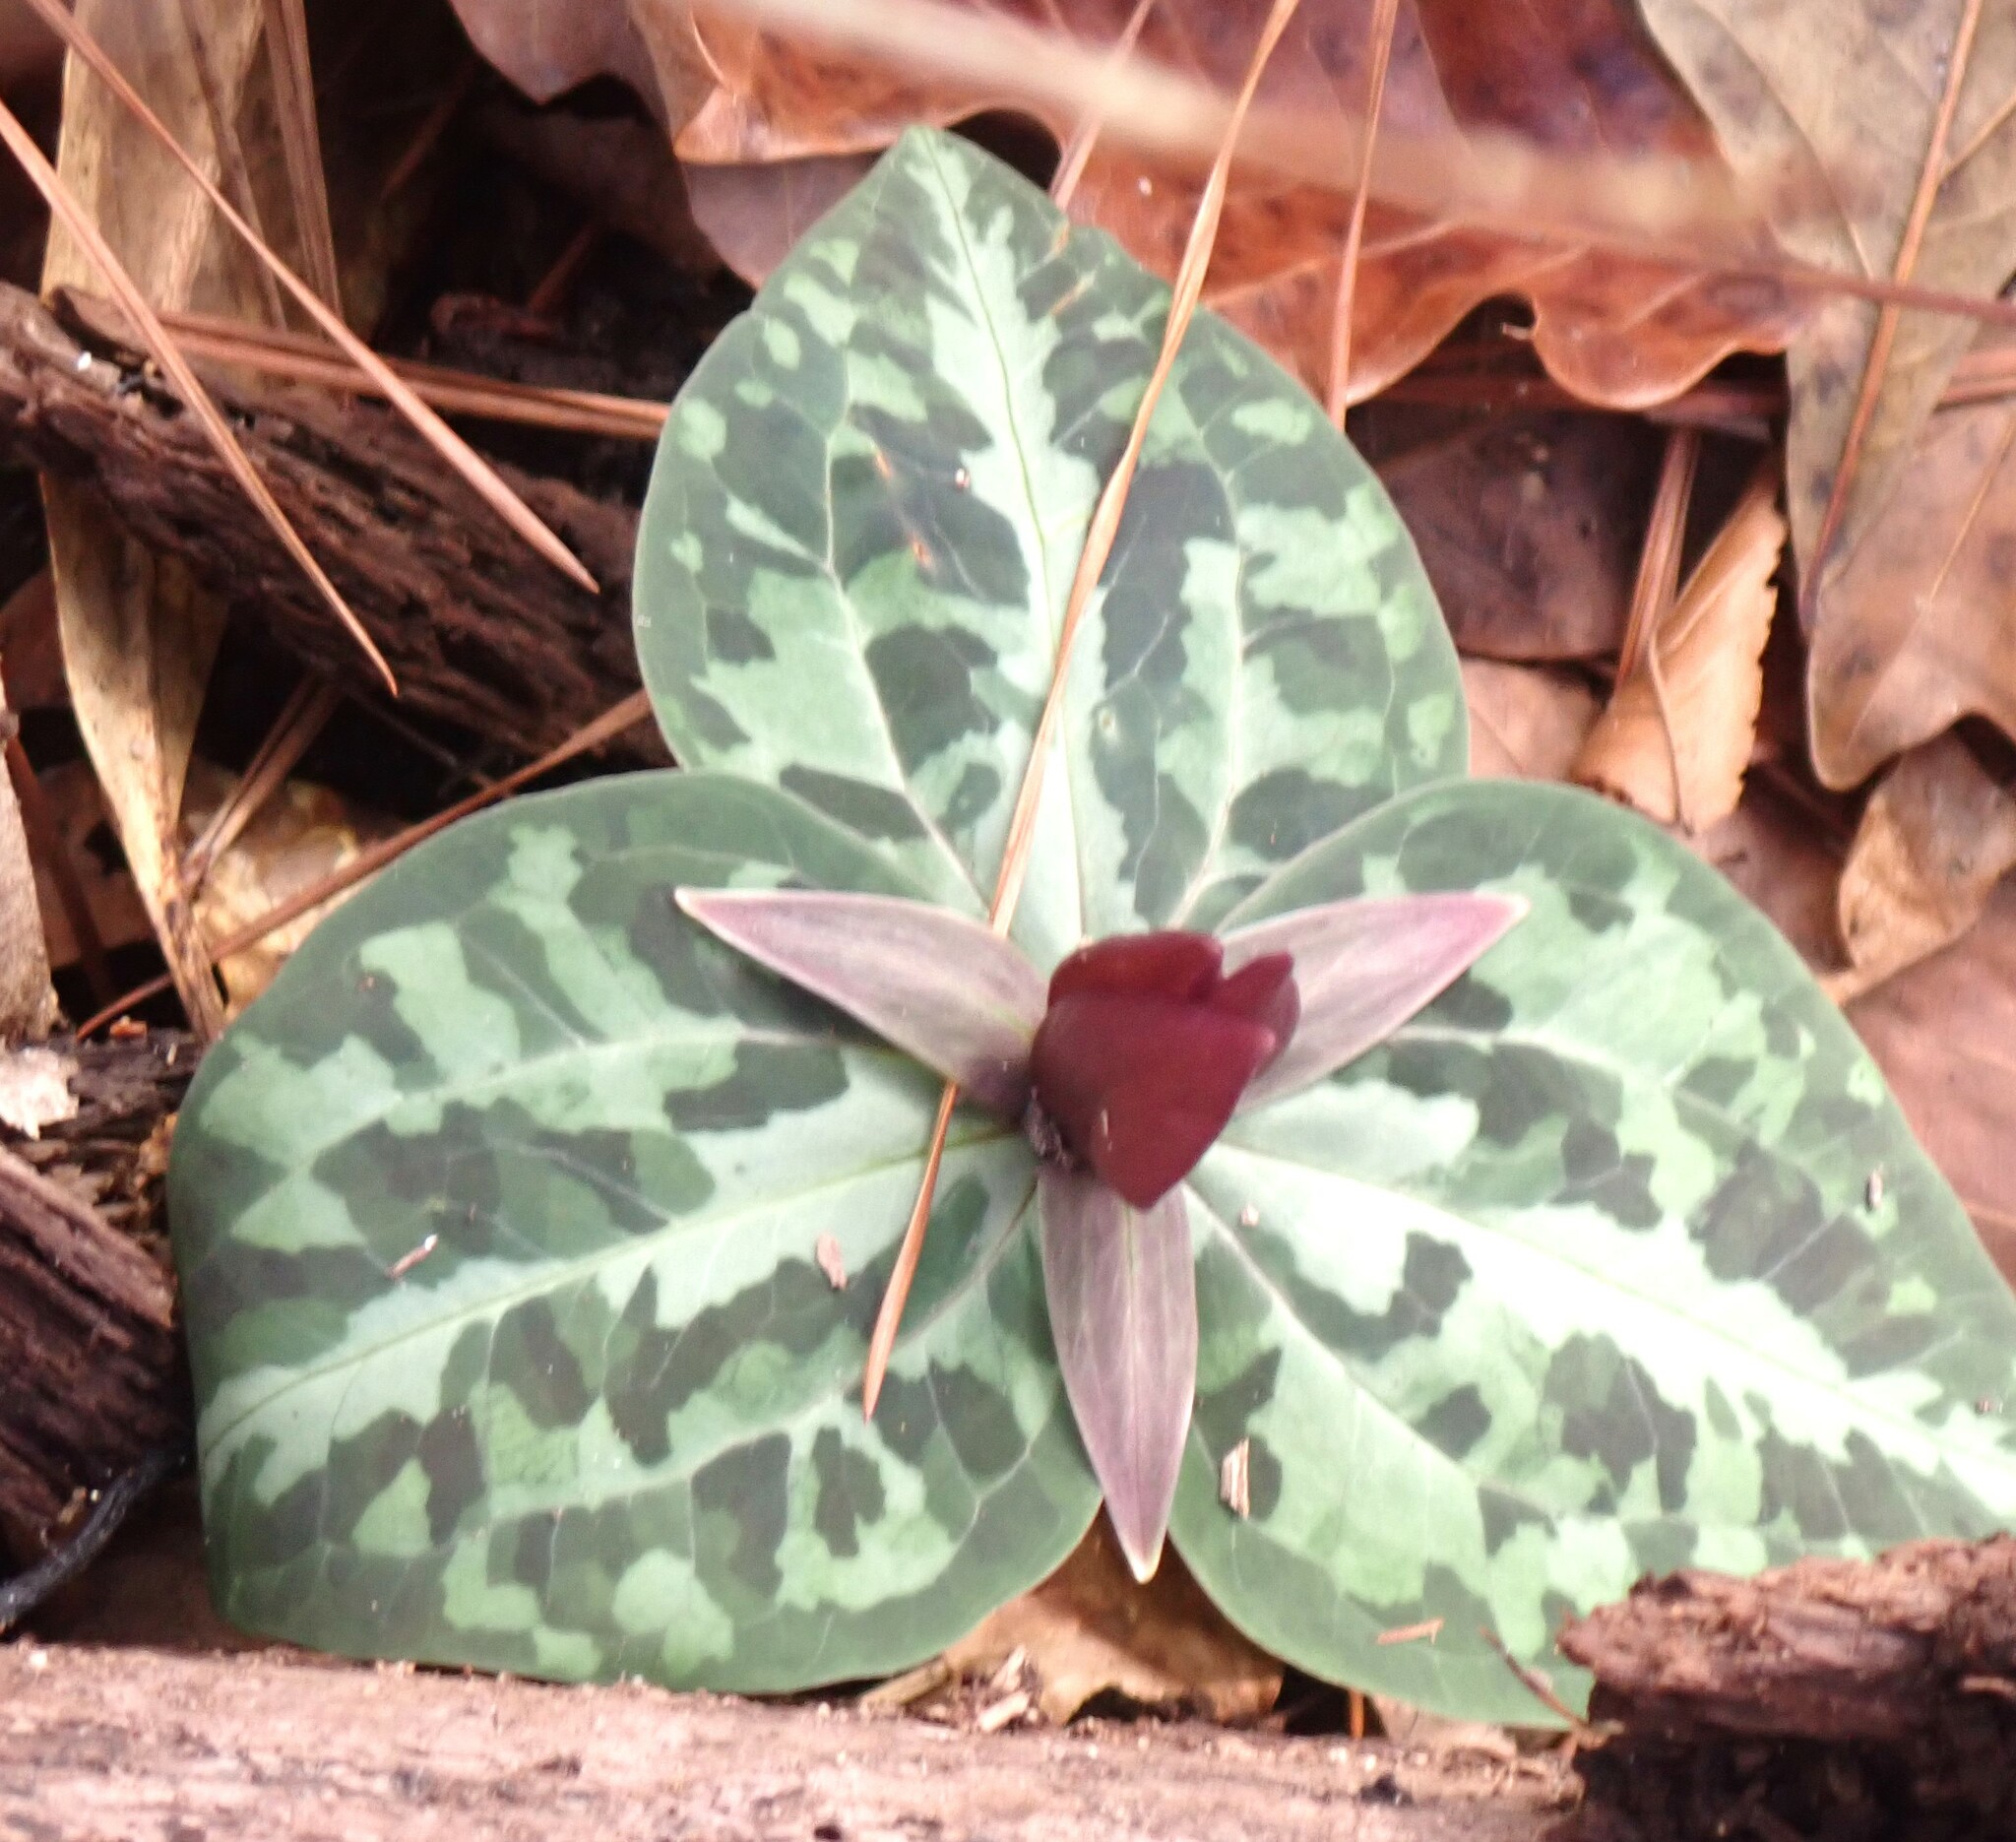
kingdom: Plantae
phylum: Tracheophyta
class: Liliopsida
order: Liliales
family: Melanthiaceae
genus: Trillium
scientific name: Trillium underwoodii
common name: Longbract wakerobin
